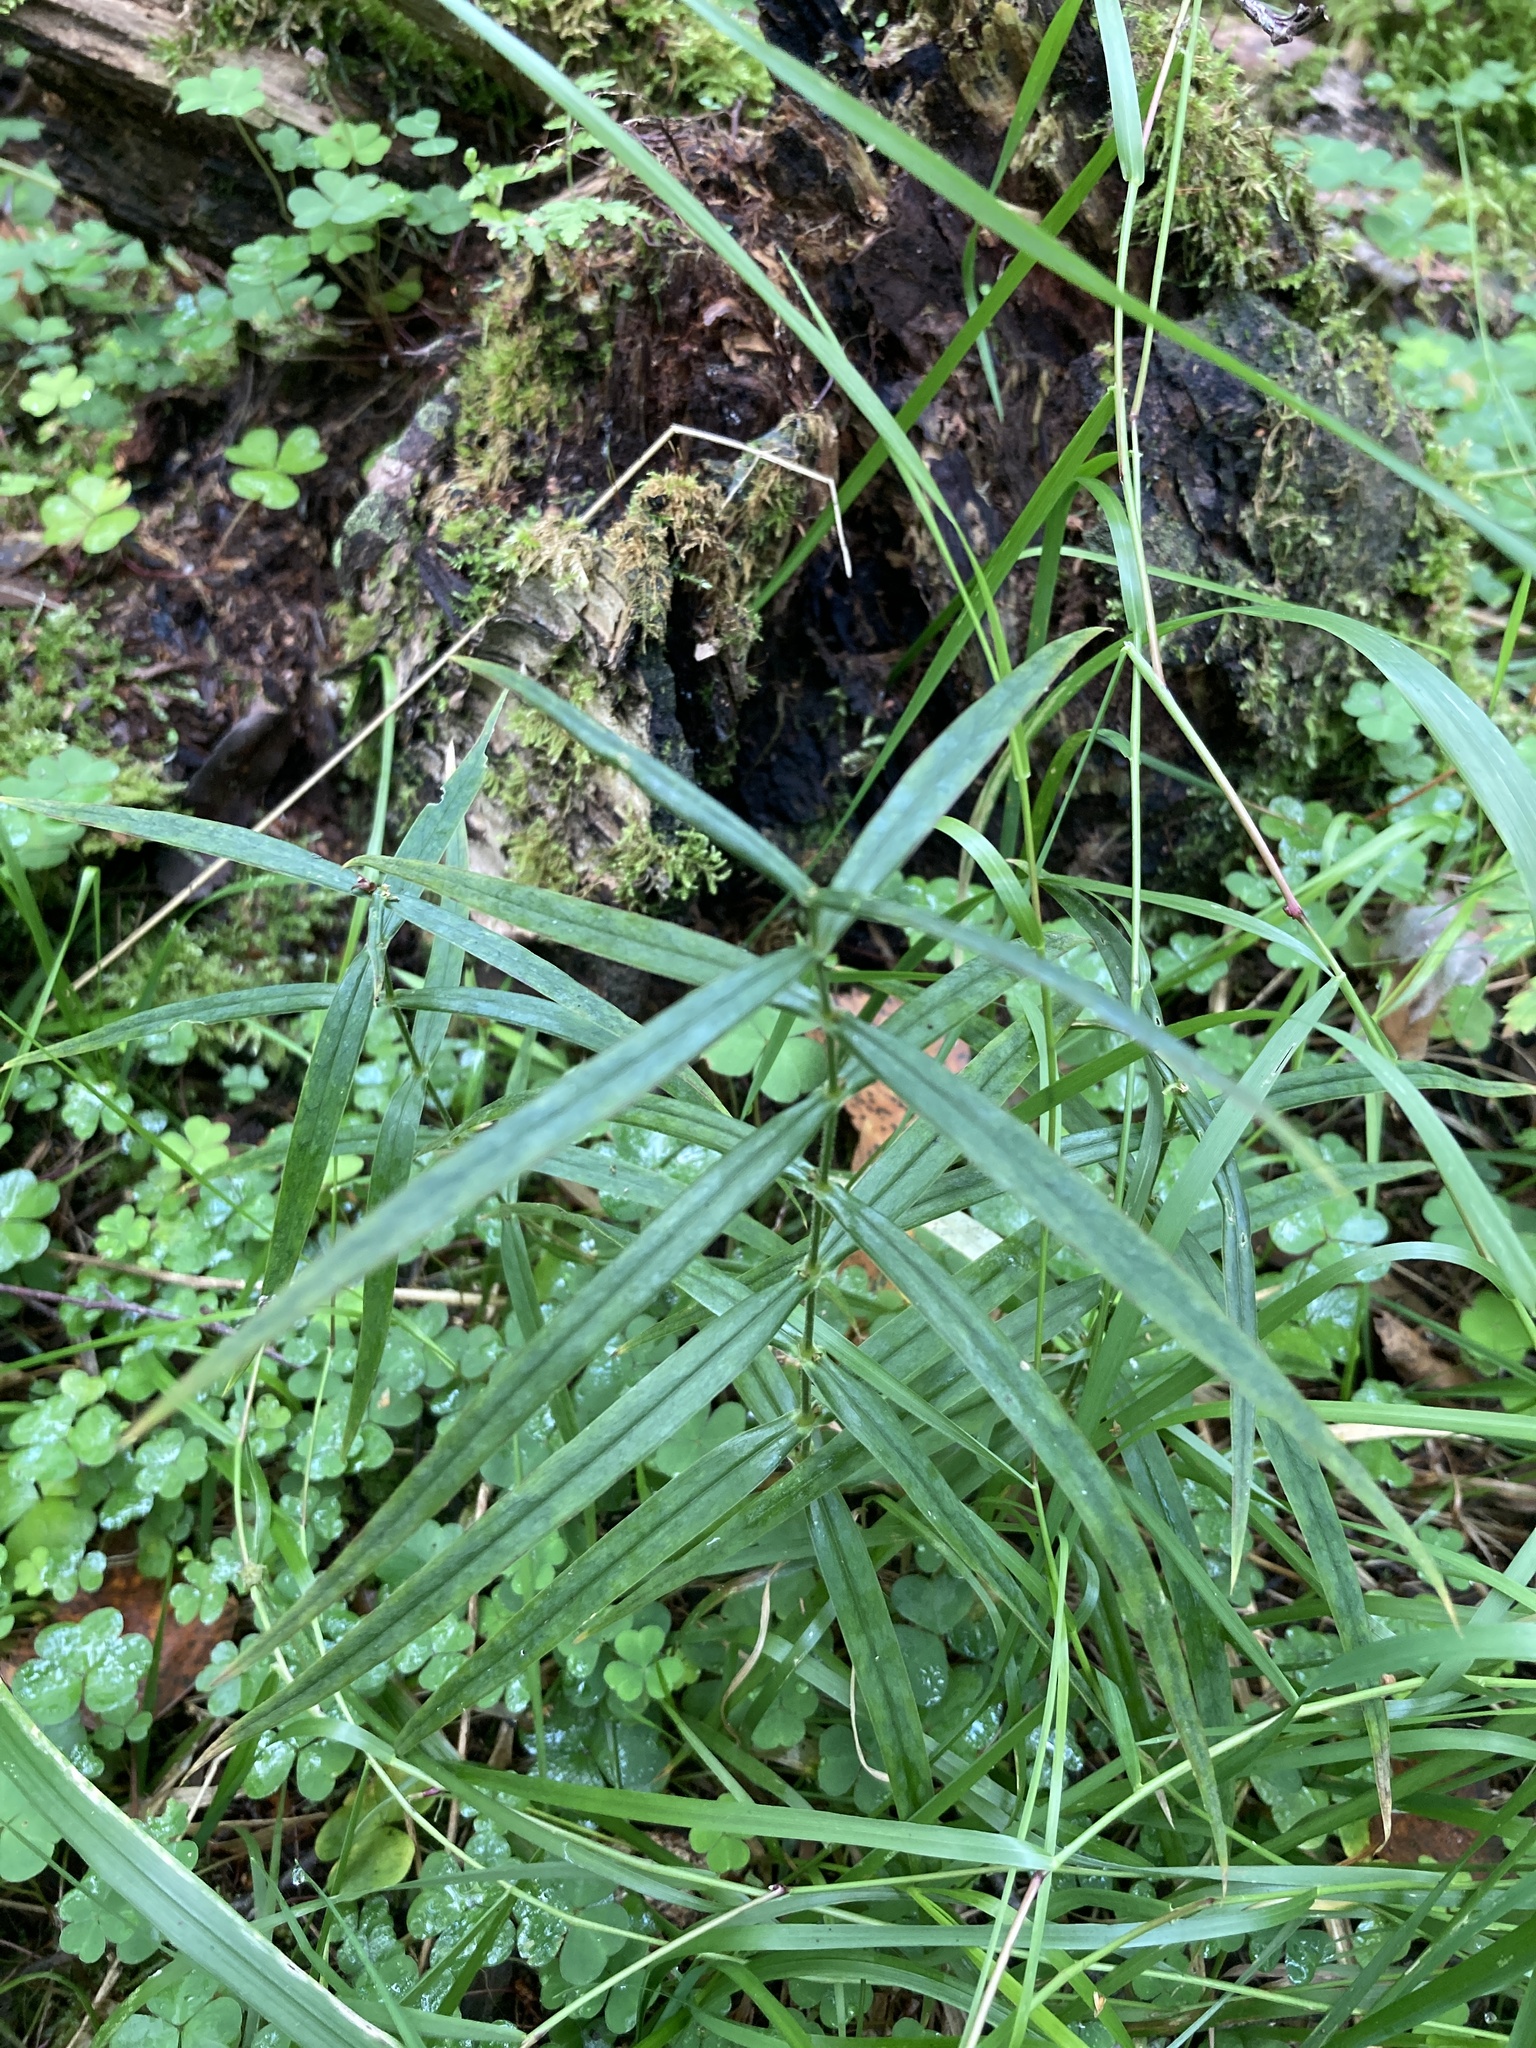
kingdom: Plantae
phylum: Tracheophyta
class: Magnoliopsida
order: Caryophyllales
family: Caryophyllaceae
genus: Rabelera
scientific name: Rabelera holostea
